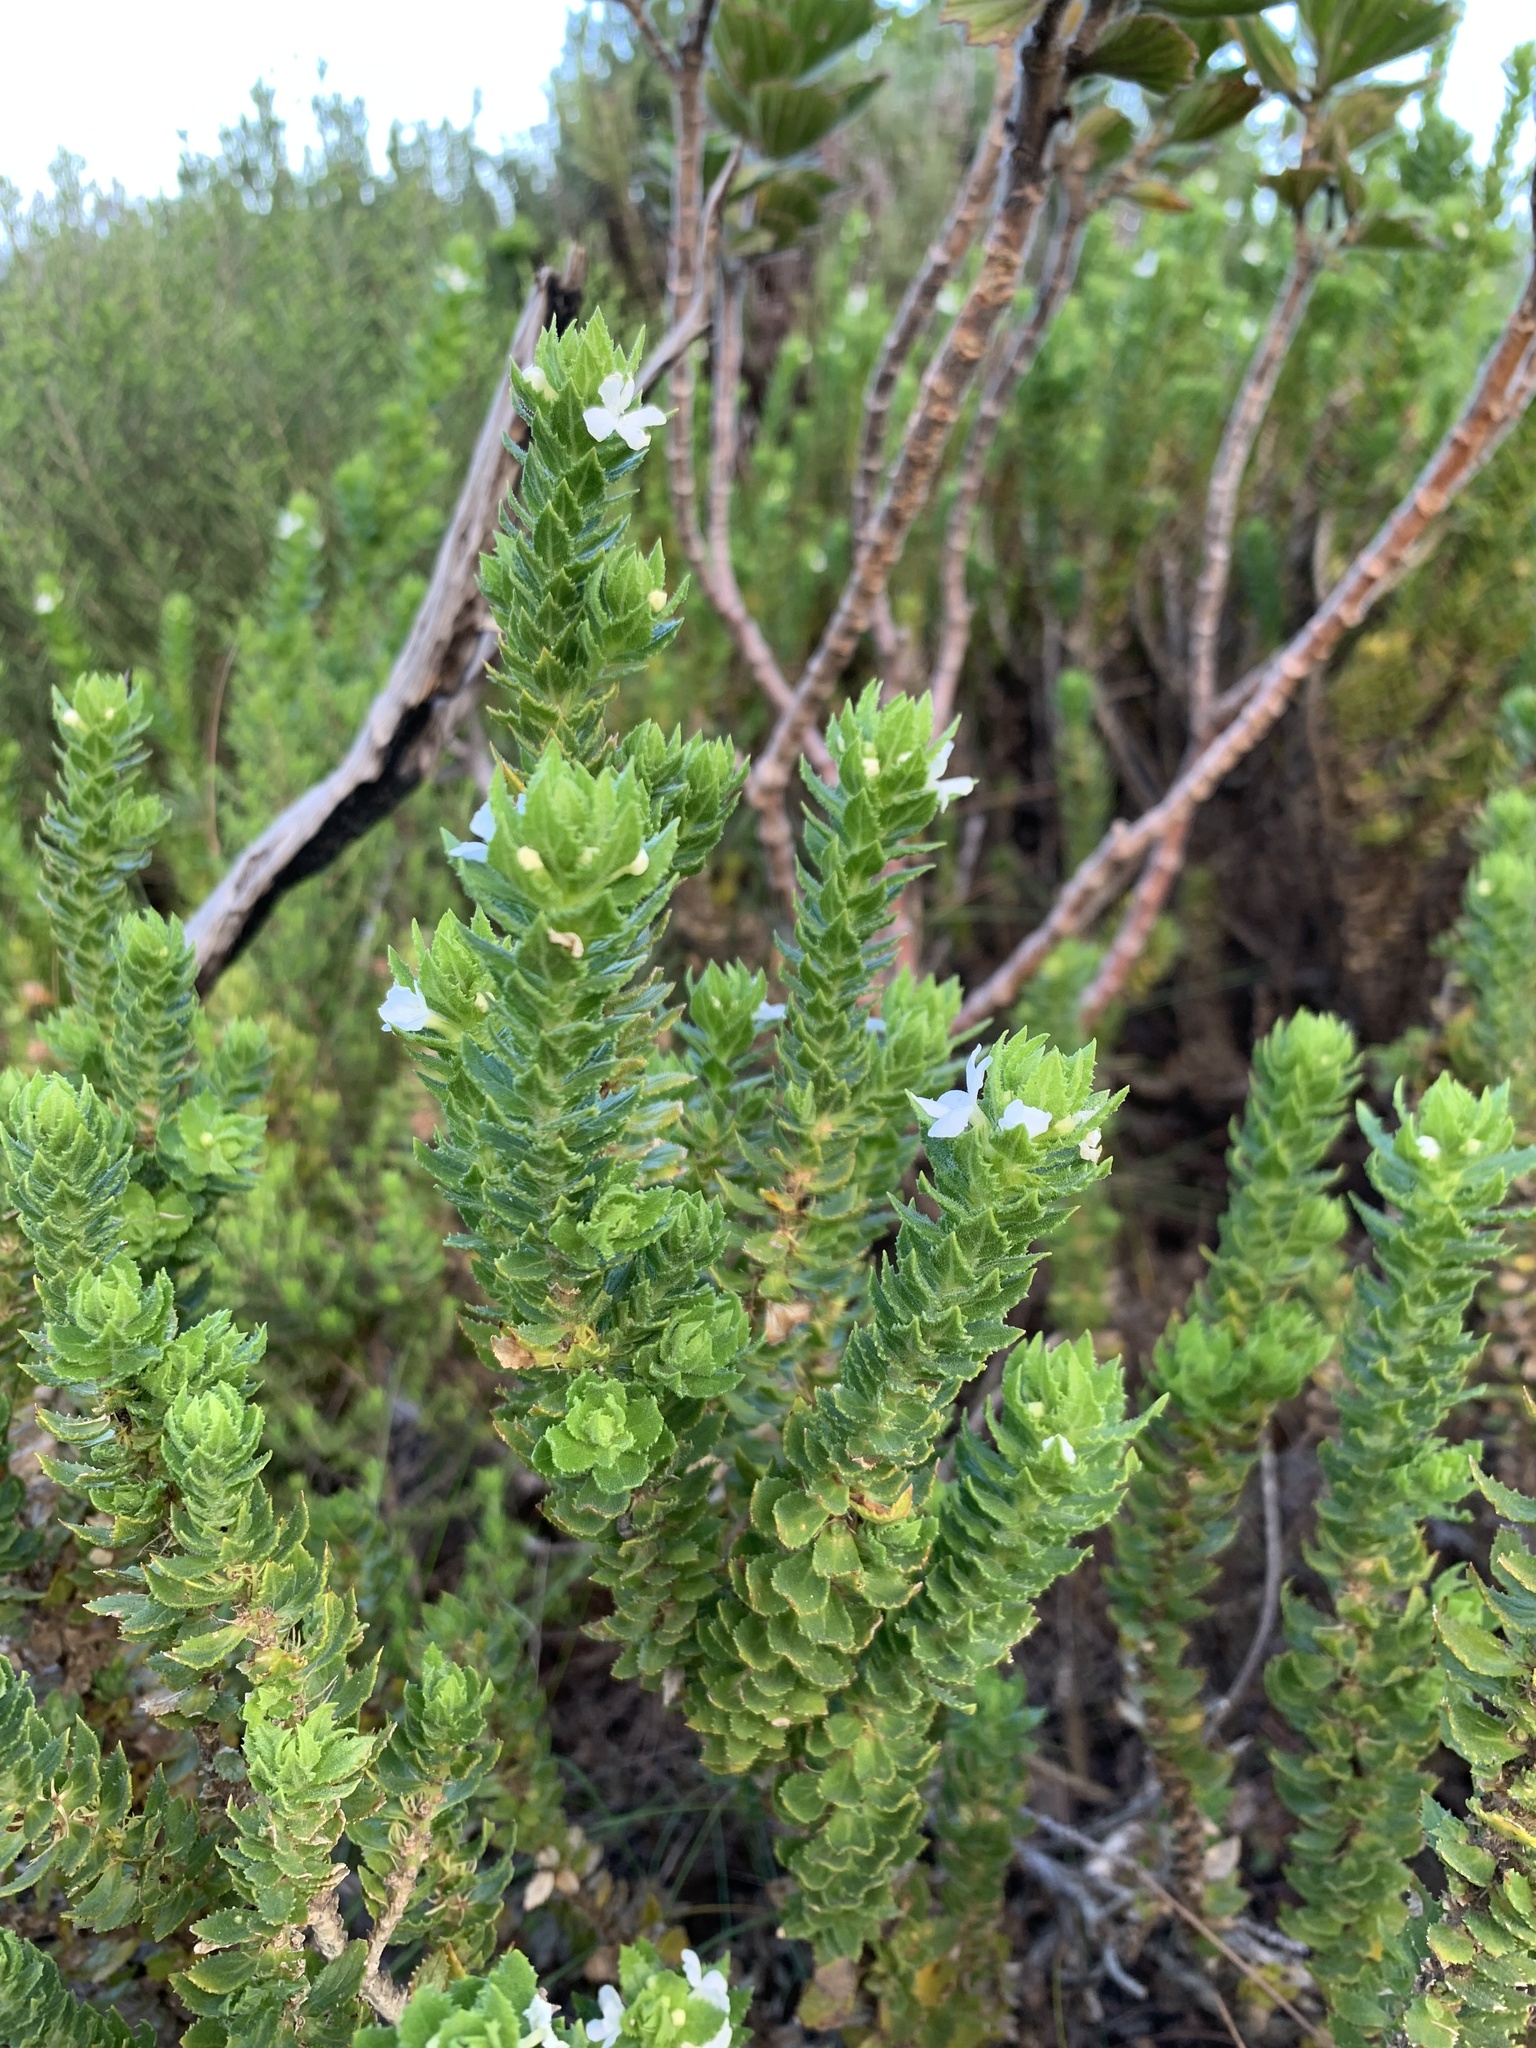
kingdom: Plantae
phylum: Tracheophyta
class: Magnoliopsida
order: Lamiales
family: Scrophulariaceae
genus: Oftia
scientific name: Oftia africana
